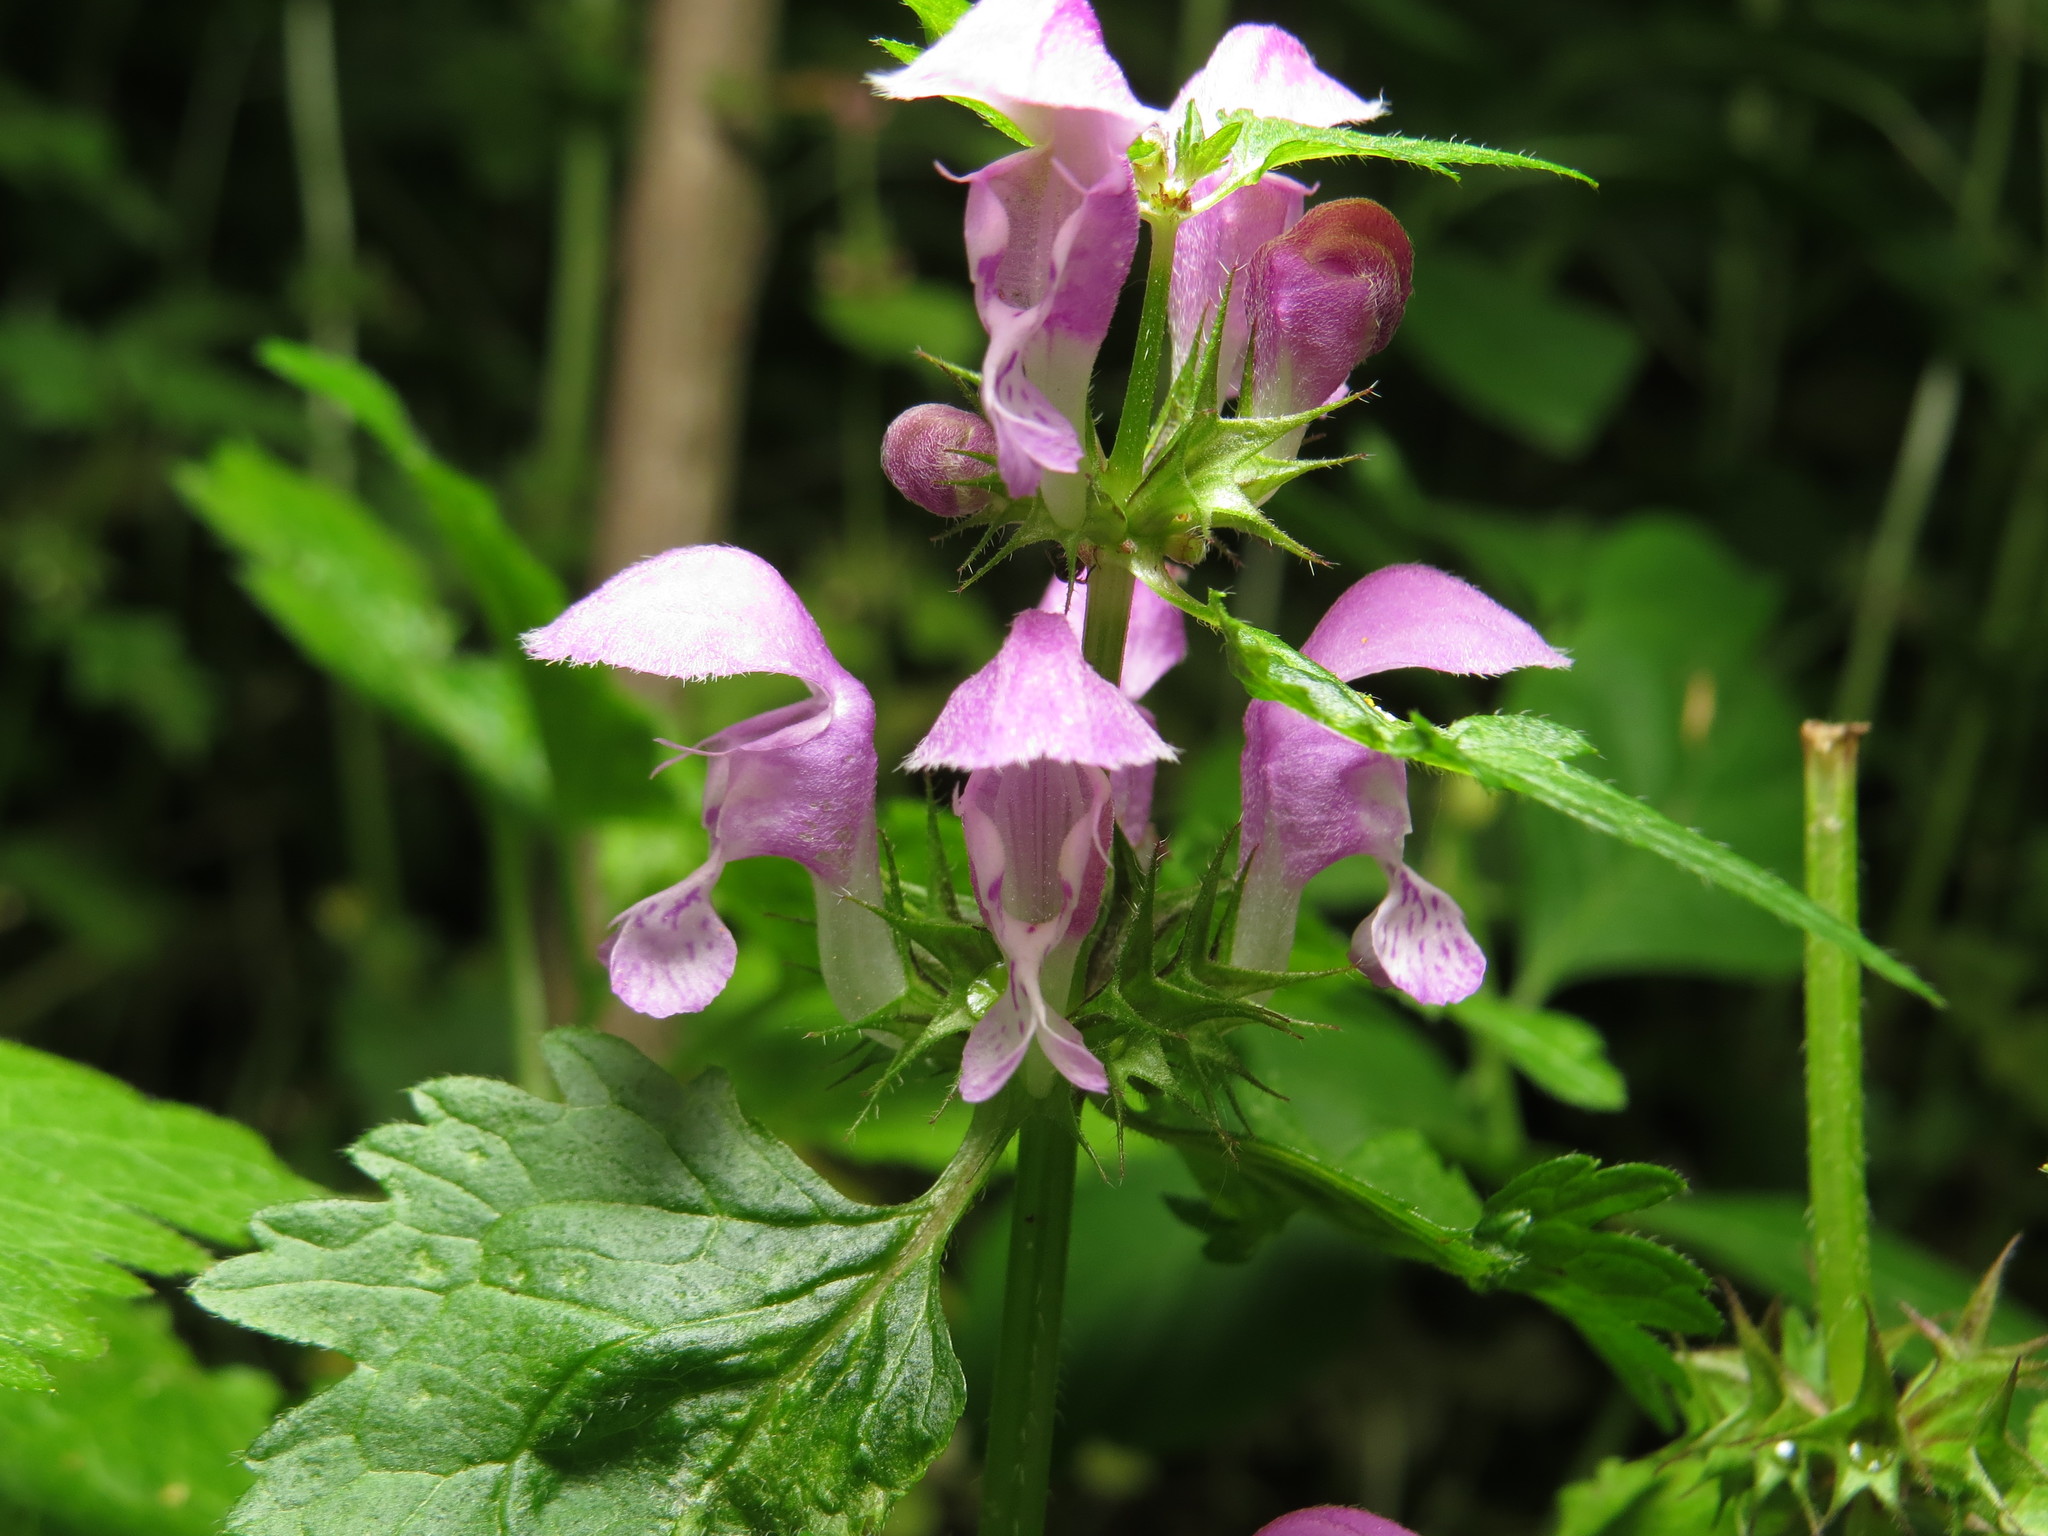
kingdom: Plantae
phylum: Tracheophyta
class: Magnoliopsida
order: Lamiales
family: Lamiaceae
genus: Lamium
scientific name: Lamium maculatum
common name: Spotted dead-nettle
